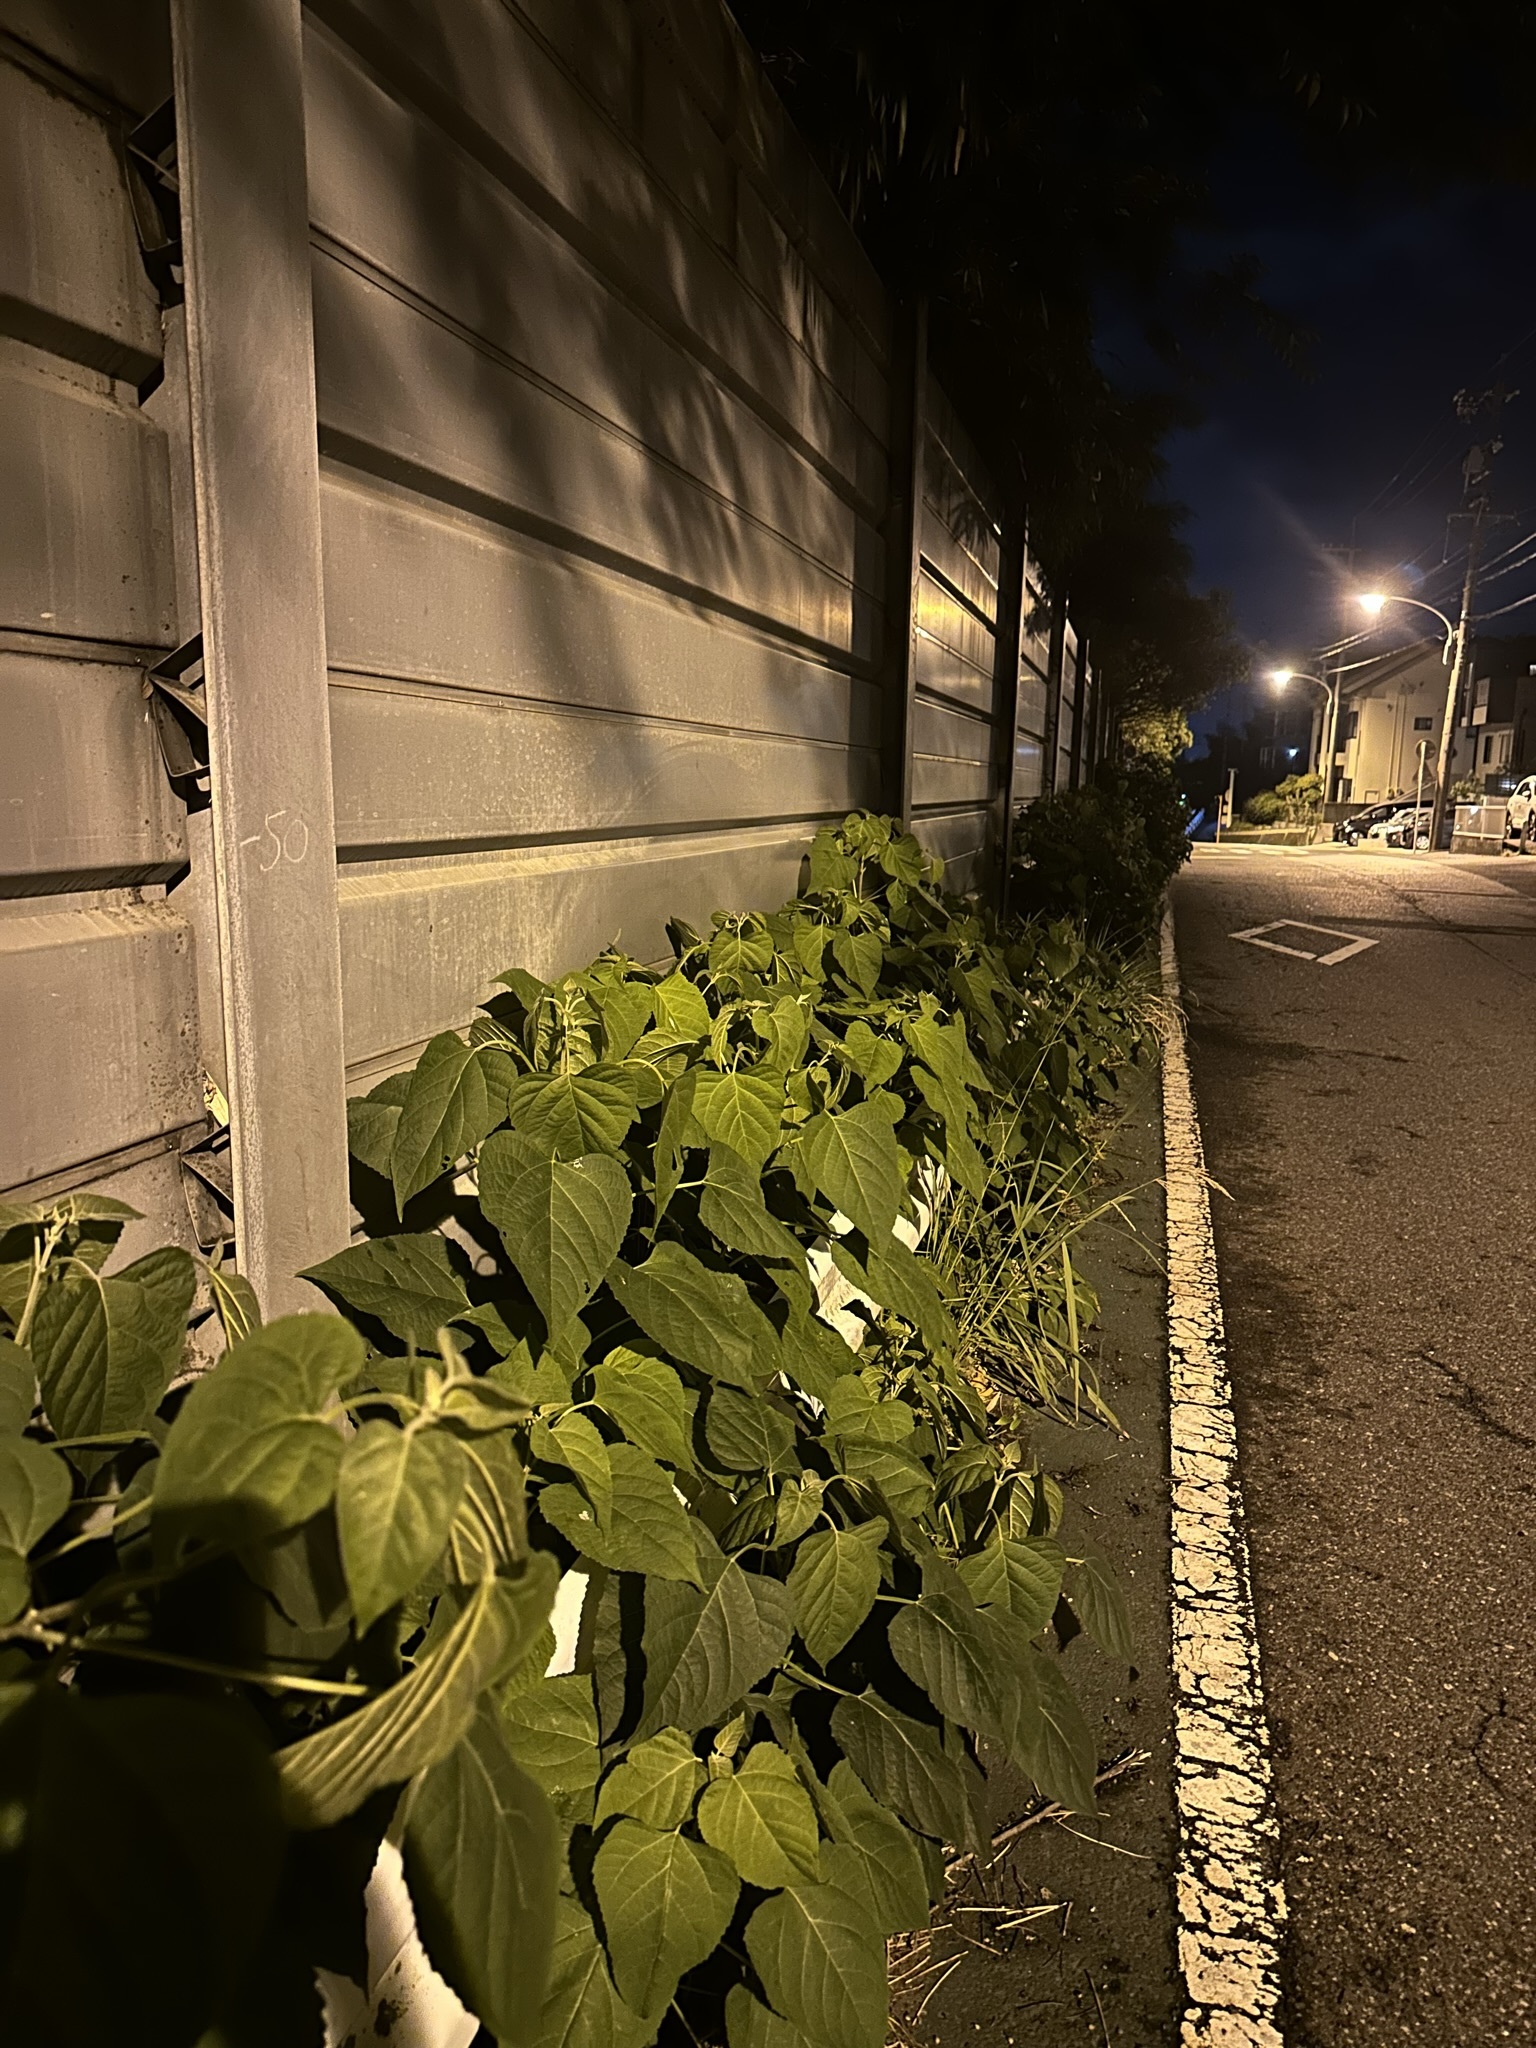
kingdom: Animalia
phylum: Arthropoda
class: Insecta
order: Orthoptera
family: Tettigoniidae
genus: Mecopoda
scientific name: Mecopoda niponensis
